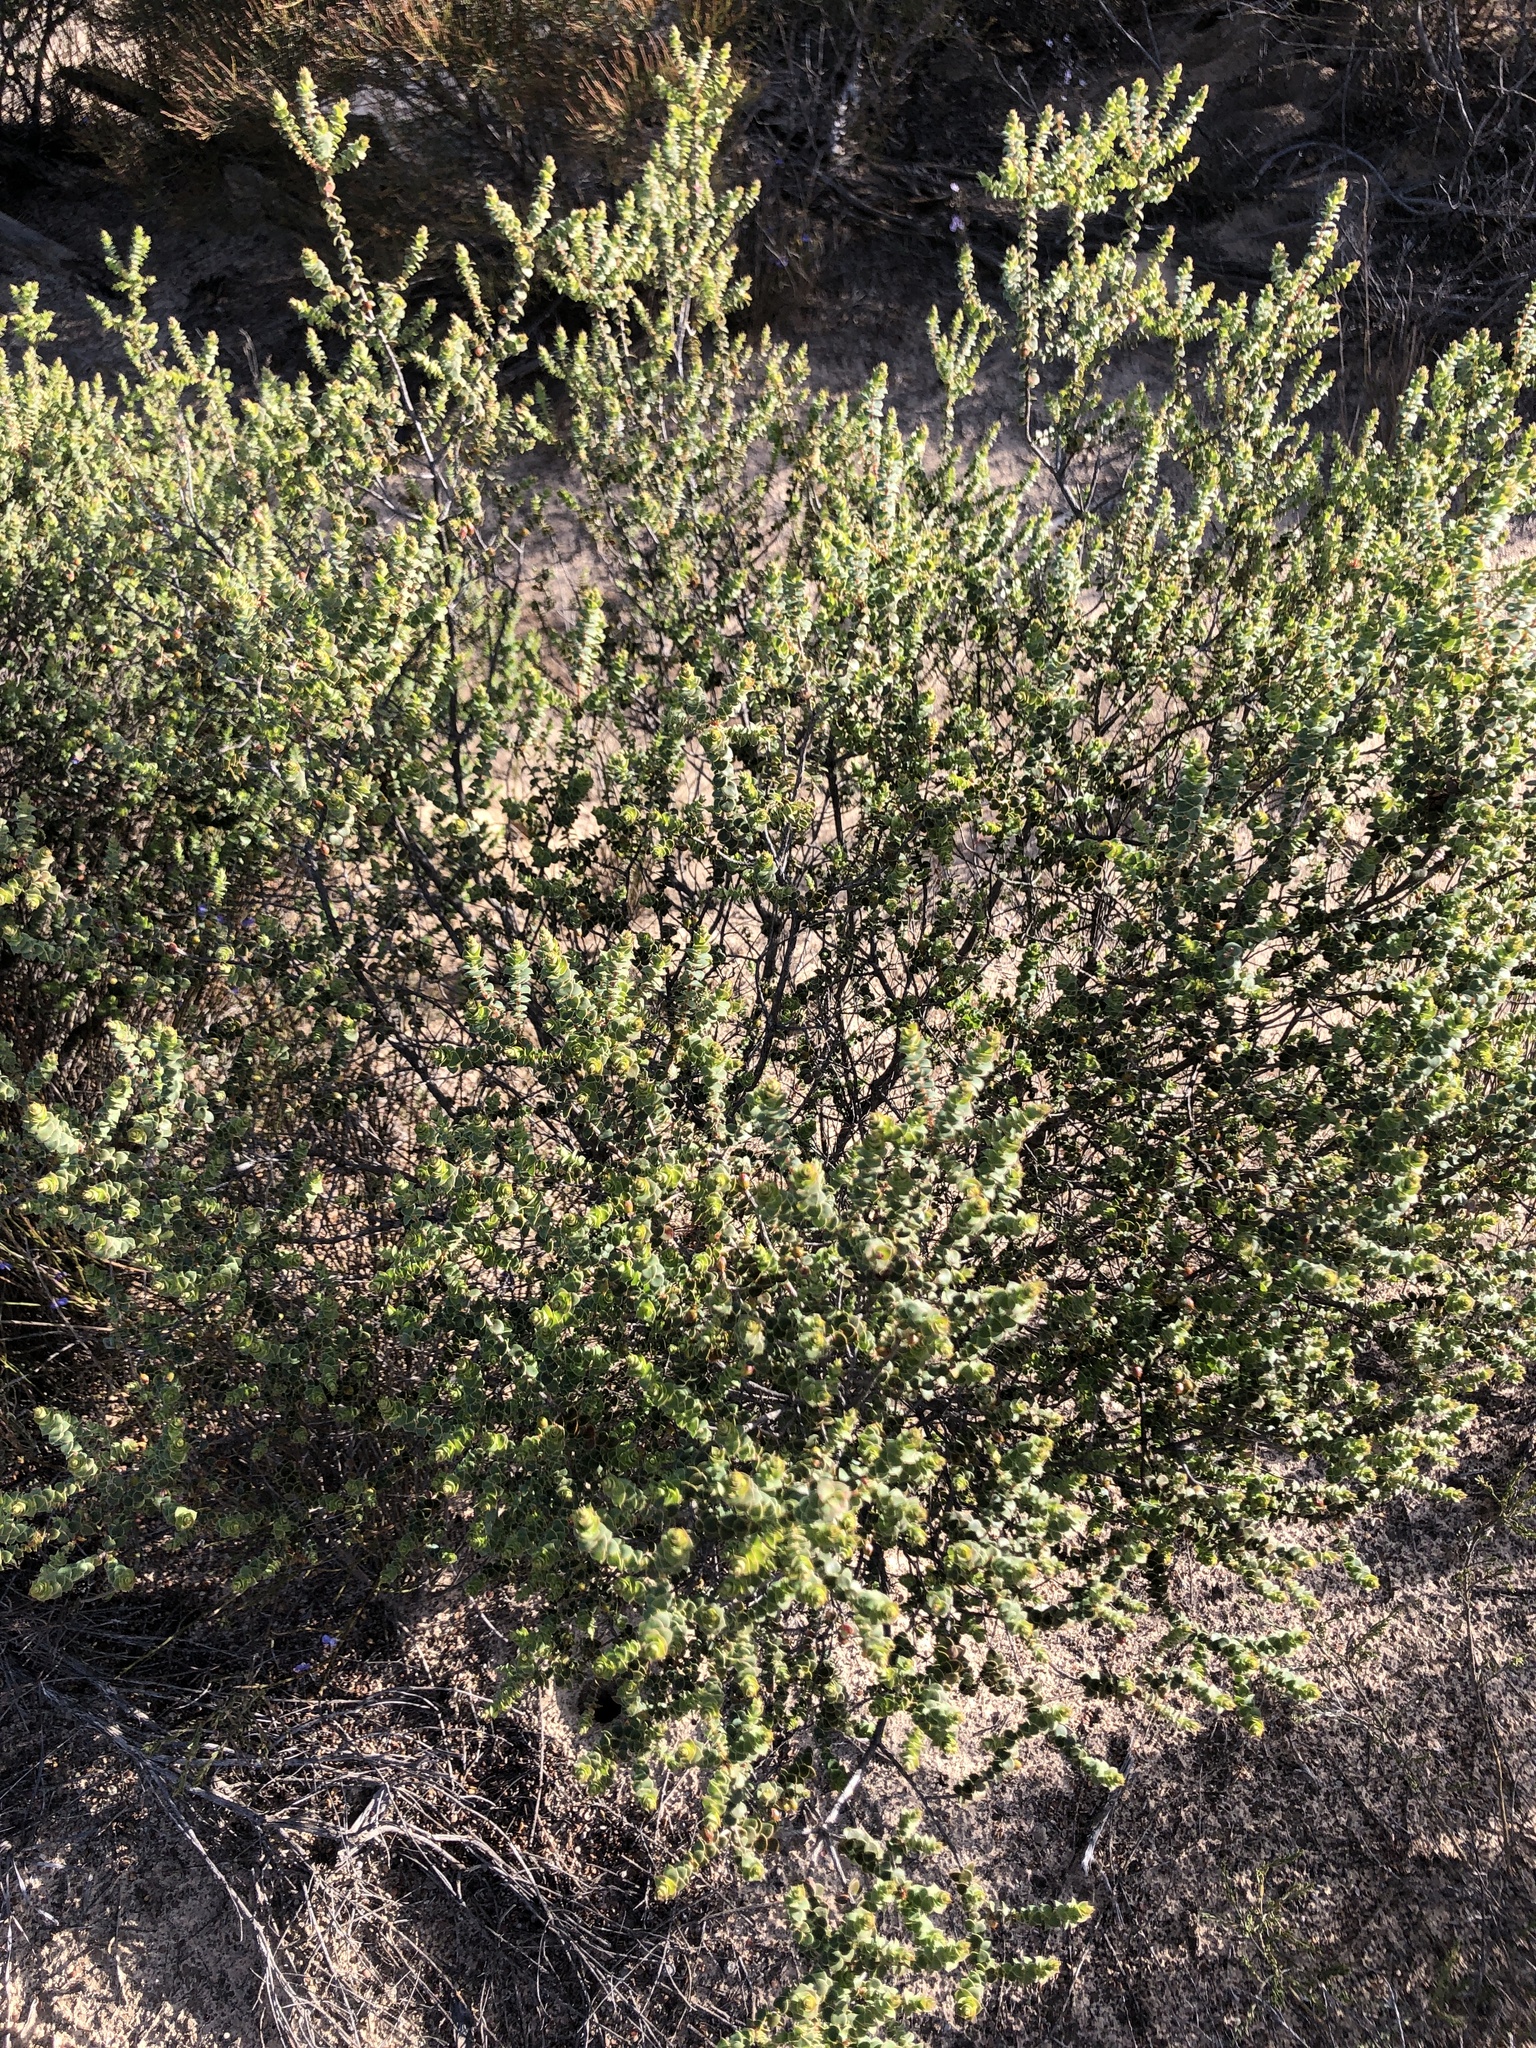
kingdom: Plantae
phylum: Tracheophyta
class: Magnoliopsida
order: Ericales
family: Ericaceae
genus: Styphelia
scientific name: Styphelia cordifolia
